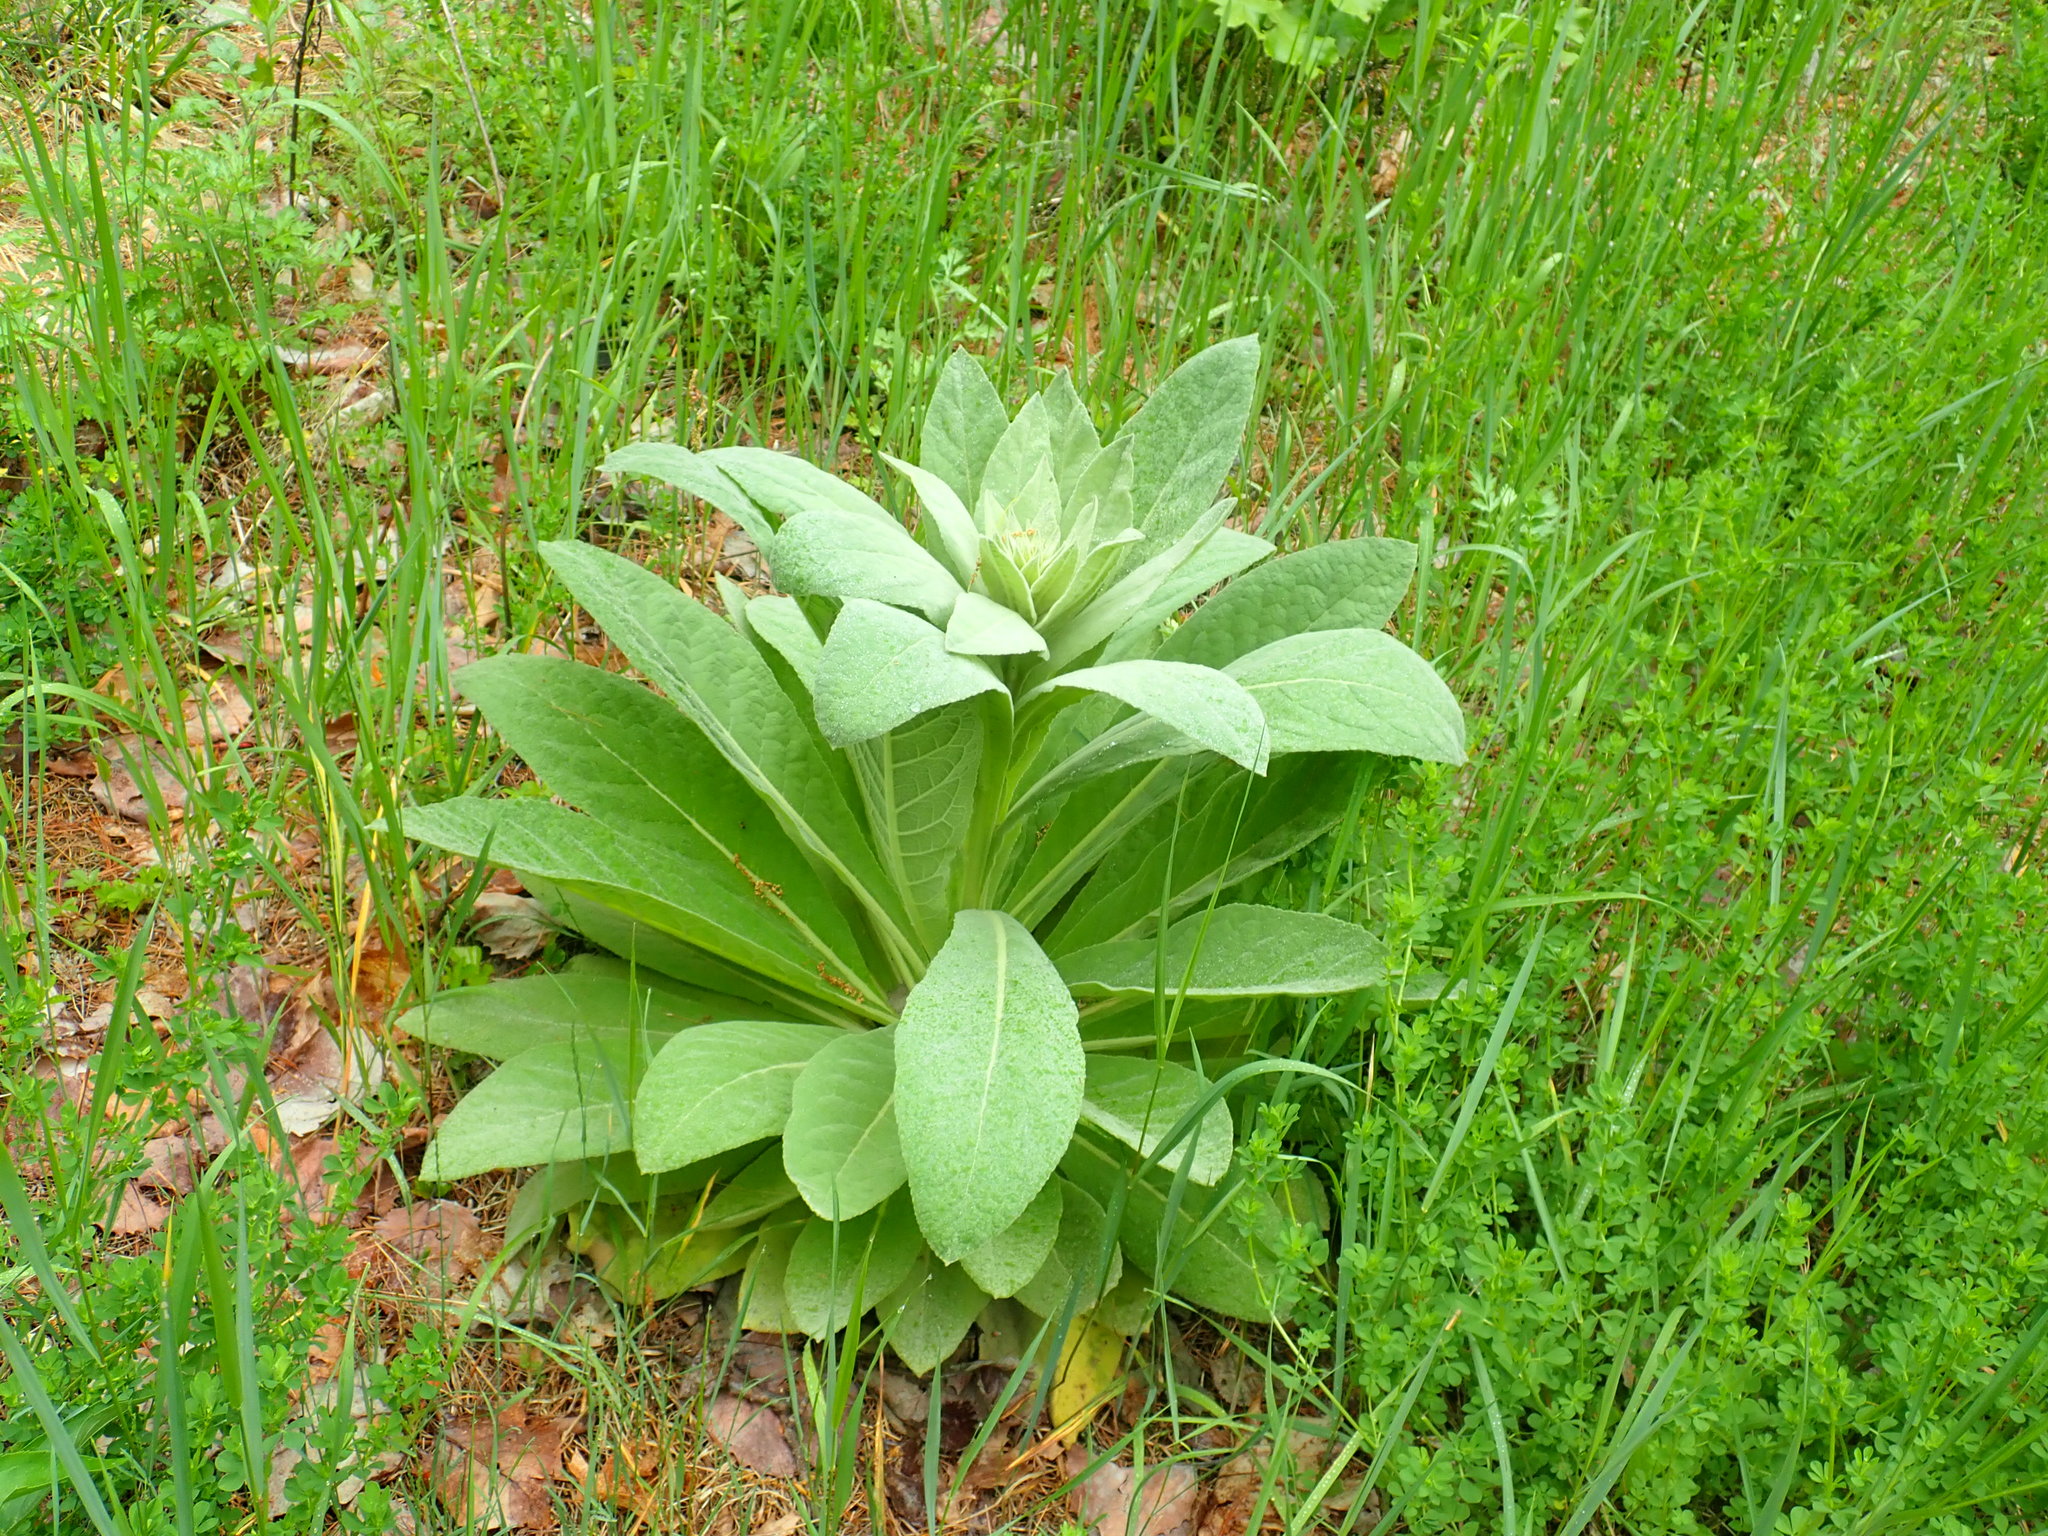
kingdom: Plantae
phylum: Tracheophyta
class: Magnoliopsida
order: Lamiales
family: Scrophulariaceae
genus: Verbascum
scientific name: Verbascum thapsus
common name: Common mullein
